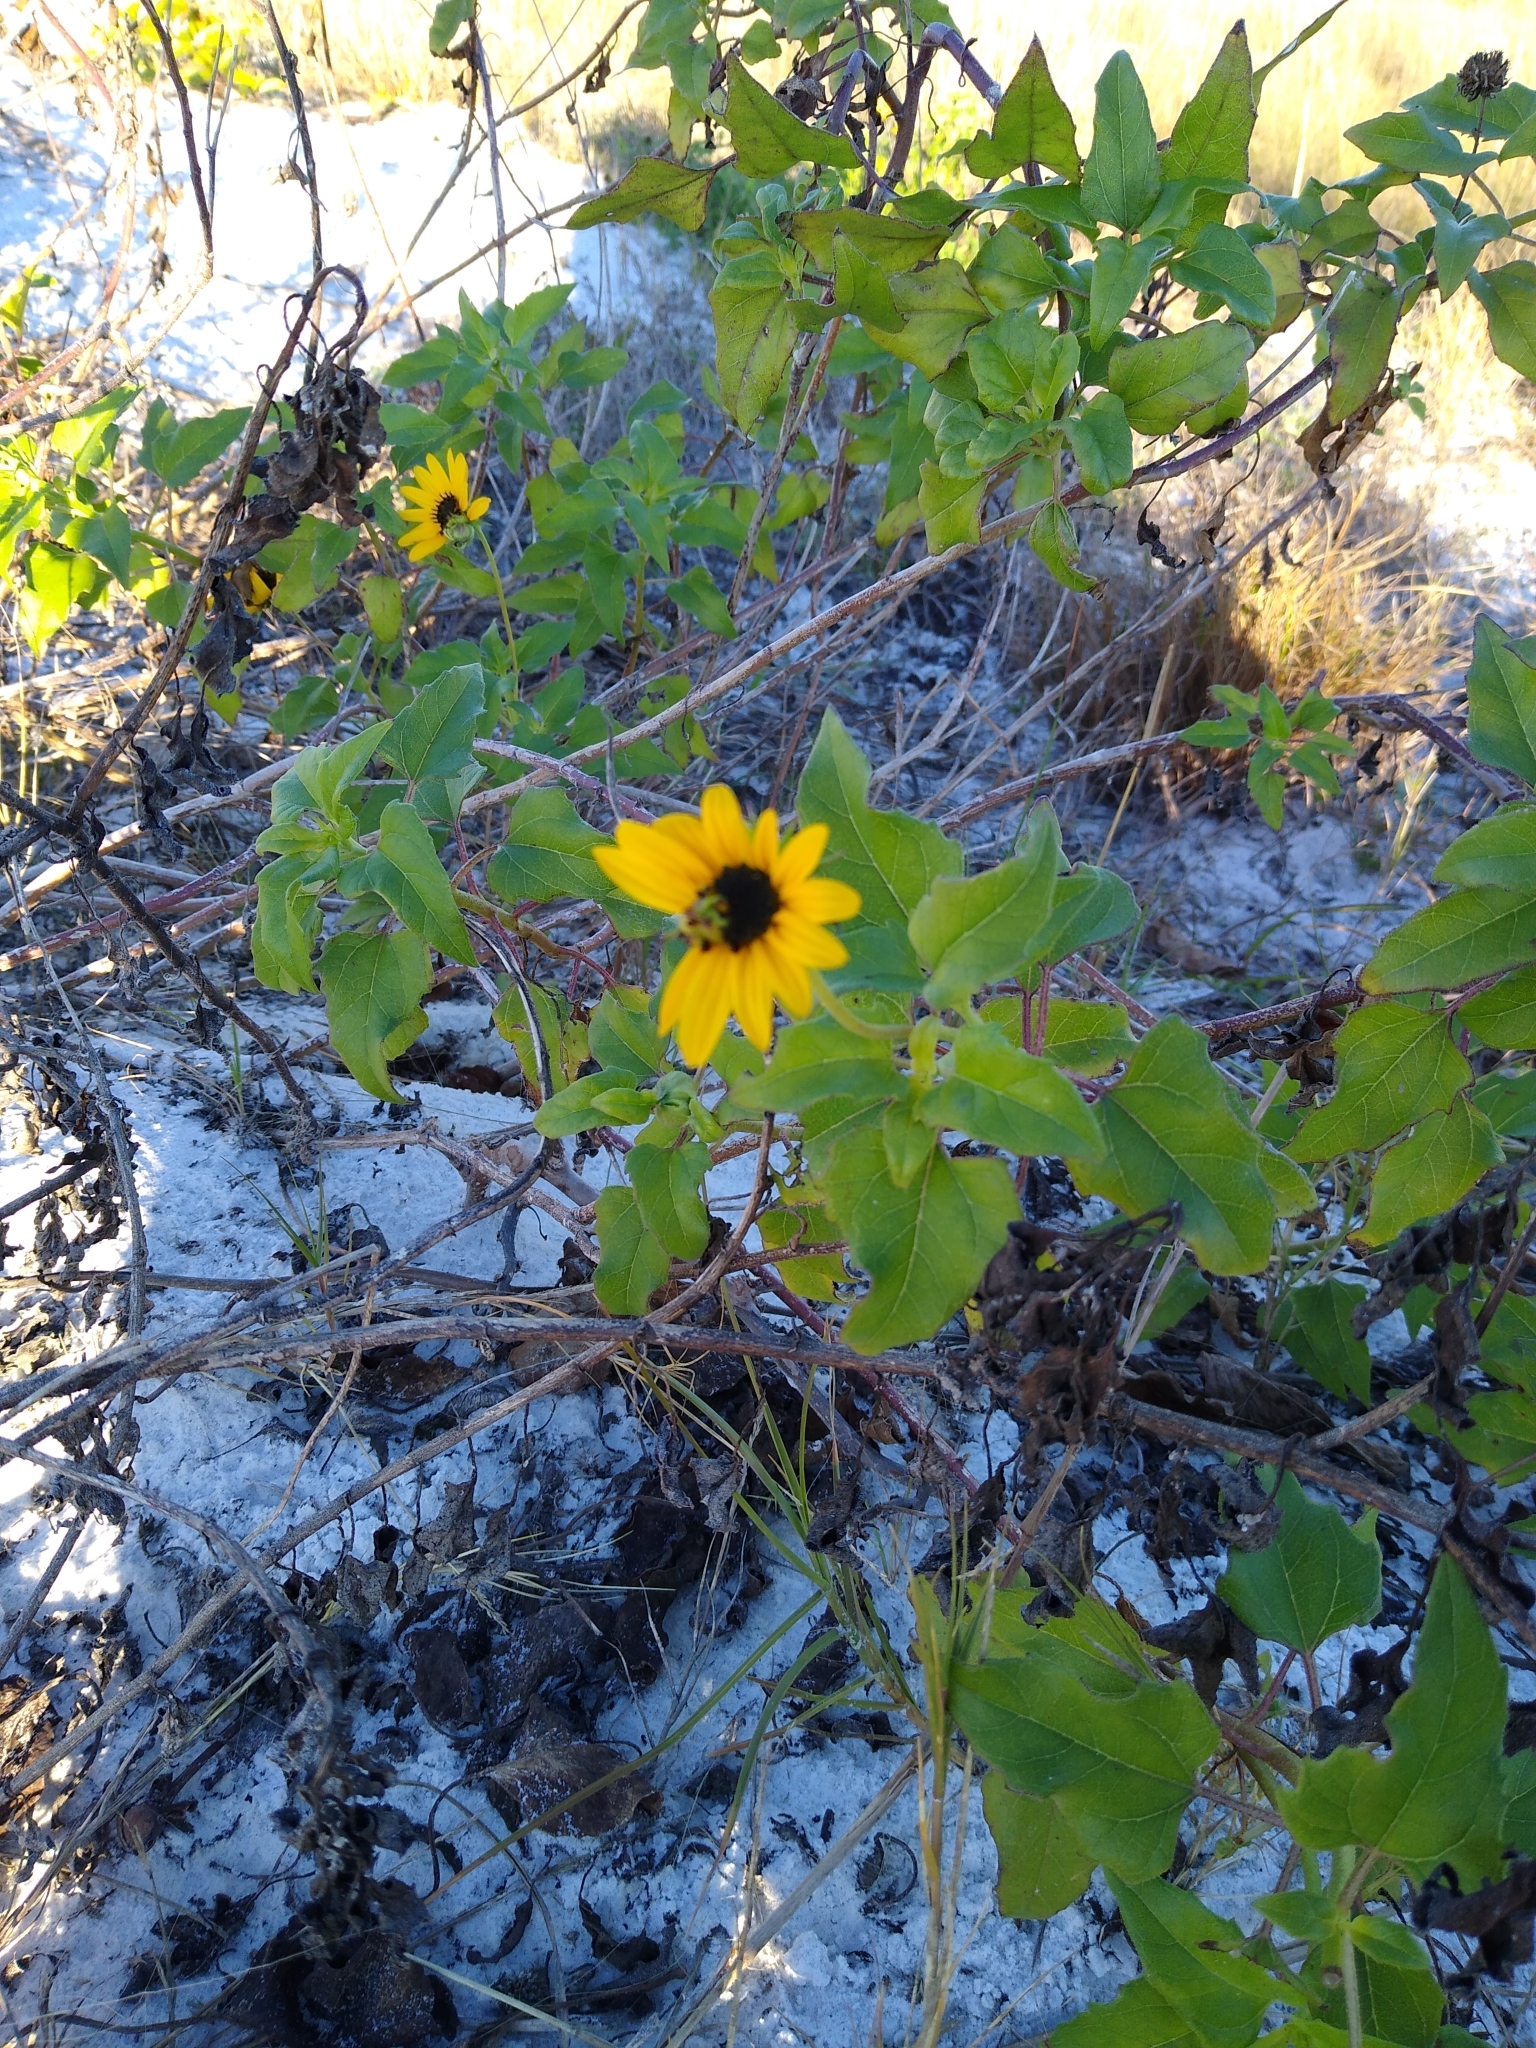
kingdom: Plantae
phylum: Tracheophyta
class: Magnoliopsida
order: Asterales
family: Asteraceae
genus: Helianthus
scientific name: Helianthus debilis
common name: Weak sunflower
